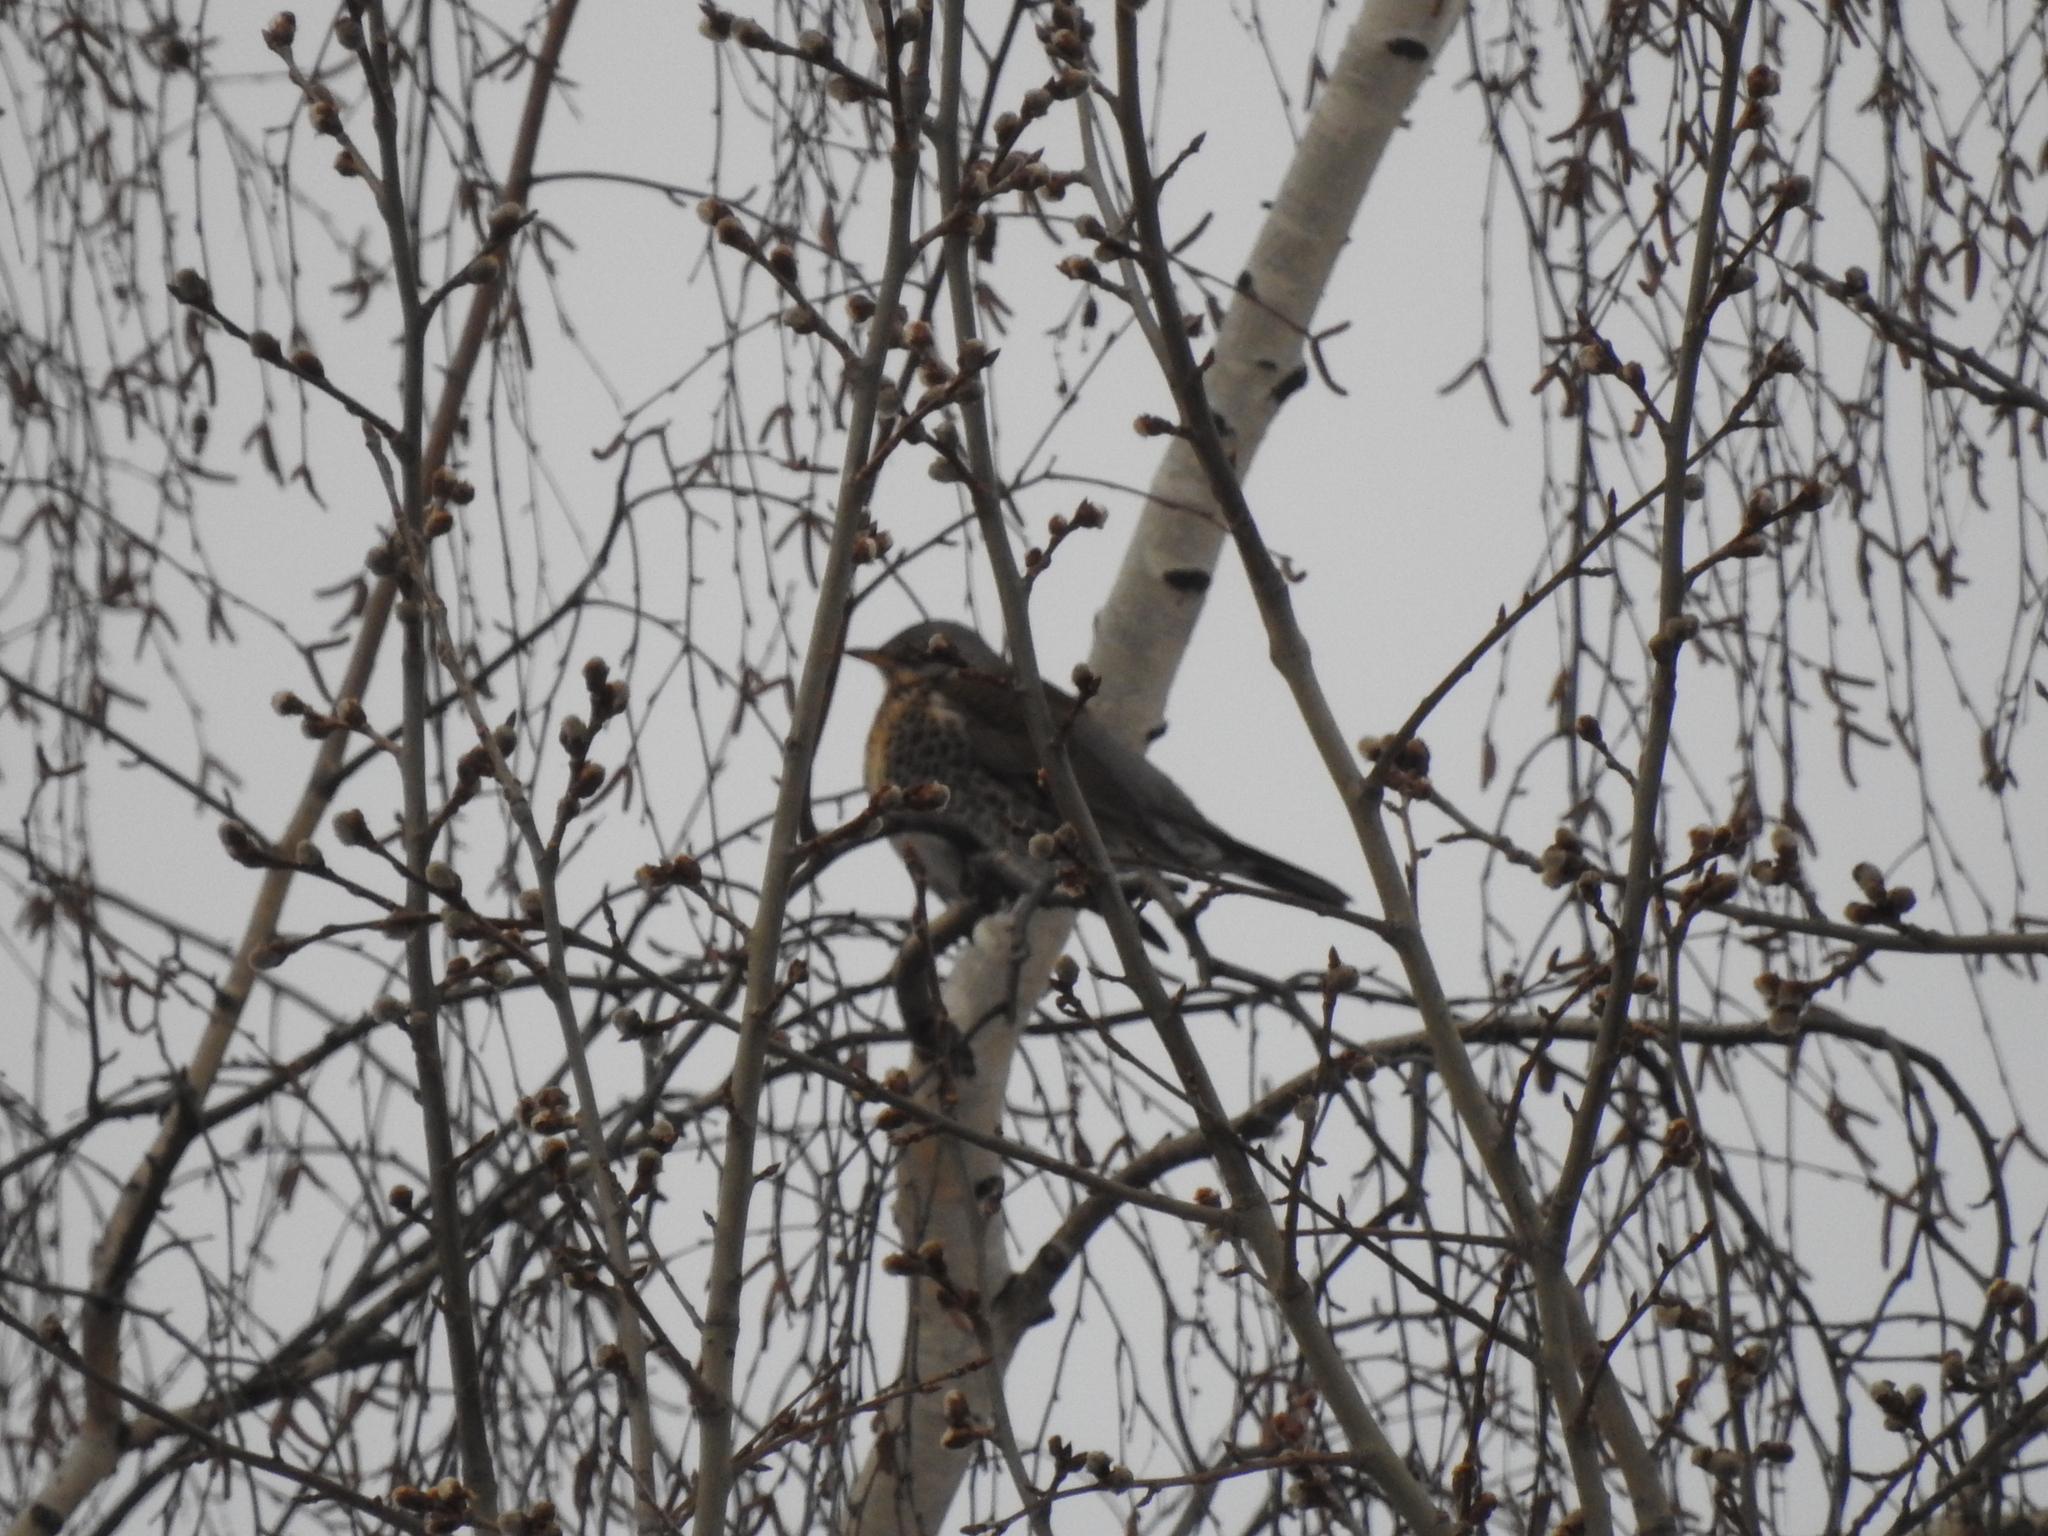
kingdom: Animalia
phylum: Chordata
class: Aves
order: Passeriformes
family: Turdidae
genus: Turdus
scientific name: Turdus pilaris
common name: Fieldfare
